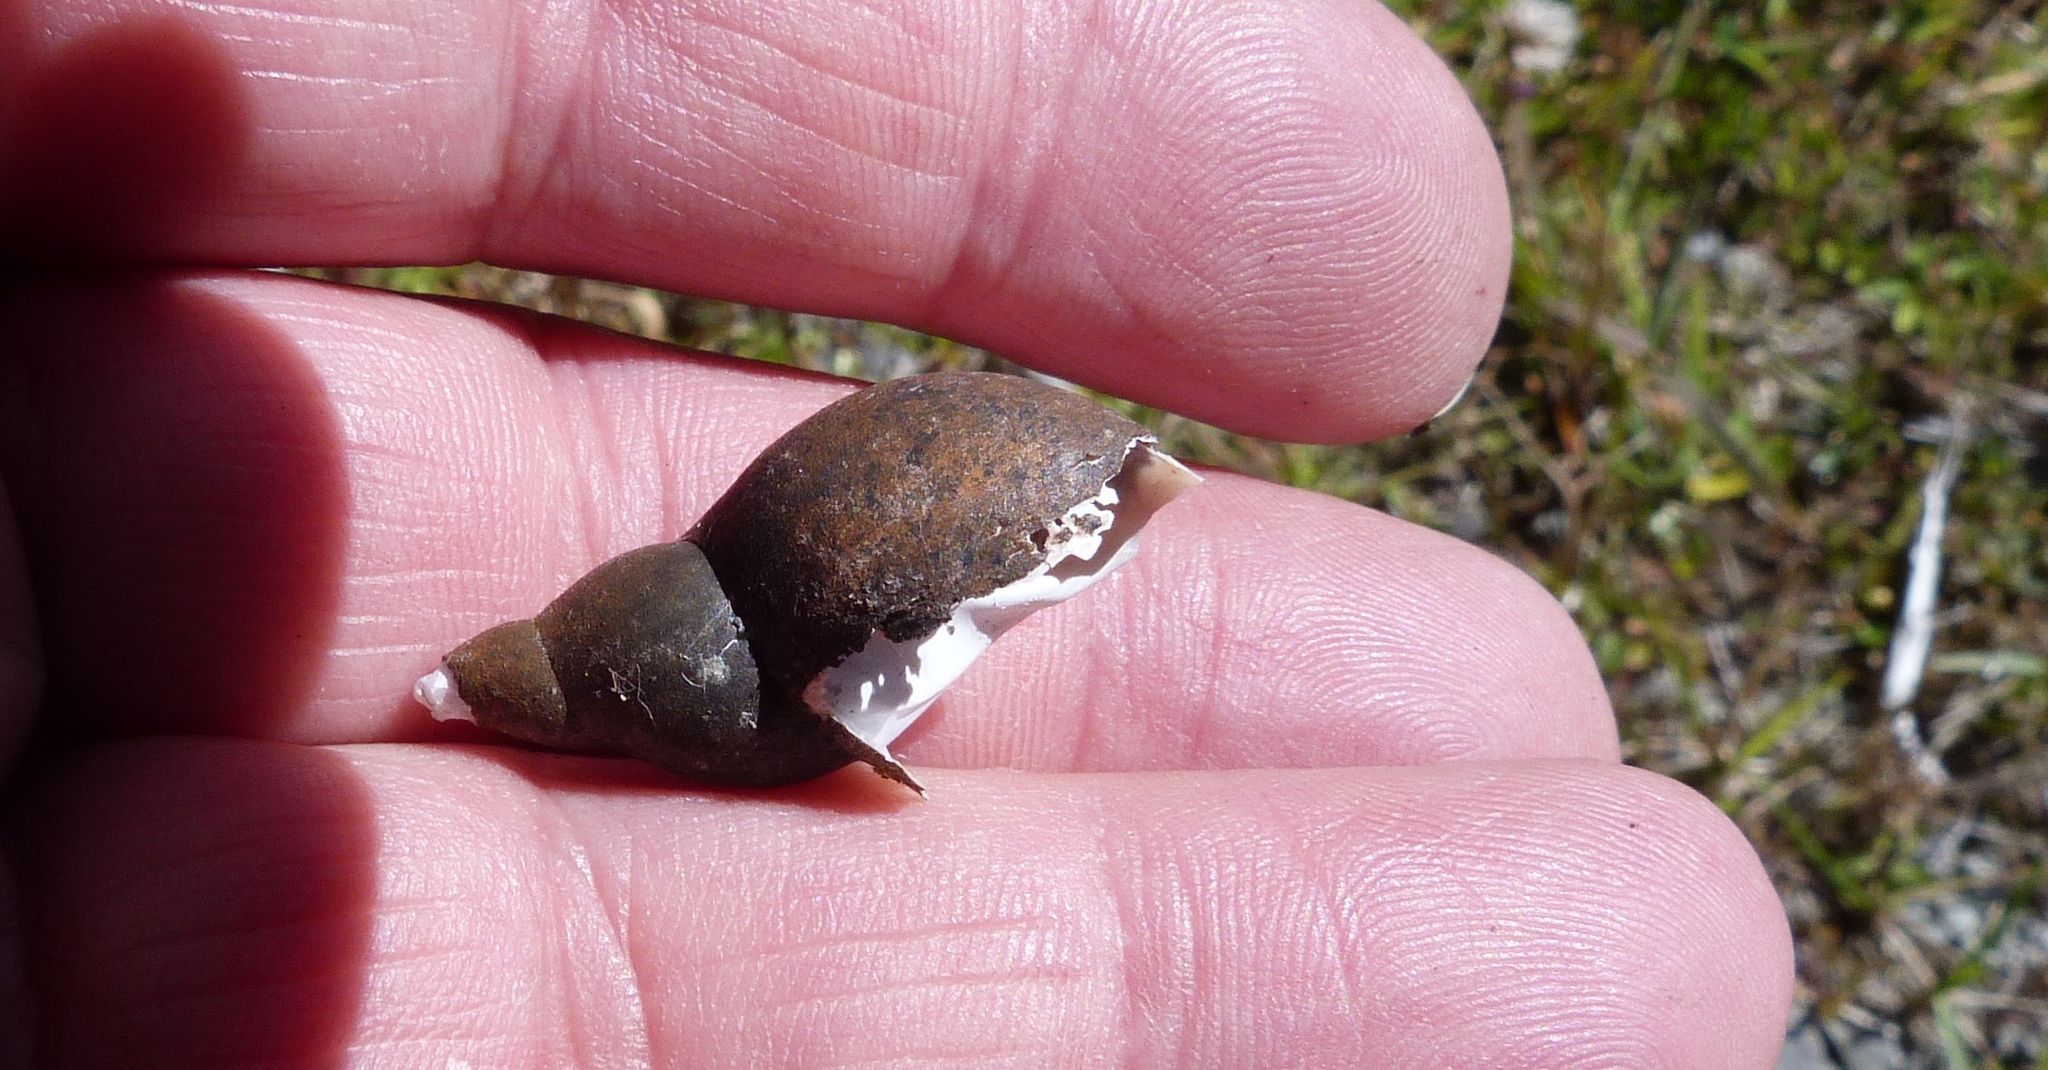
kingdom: Animalia
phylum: Mollusca
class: Gastropoda
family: Lymnaeidae
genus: Lymnaea
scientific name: Lymnaea stagnalis
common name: Great pond snail
